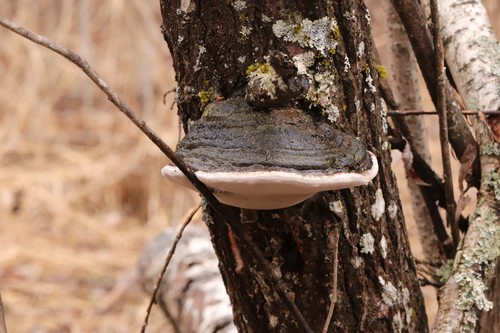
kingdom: Fungi
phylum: Basidiomycota
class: Agaricomycetes
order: Hymenochaetales
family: Hymenochaetaceae
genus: Phellinus
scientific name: Phellinus igniarius
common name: Willow bracket
